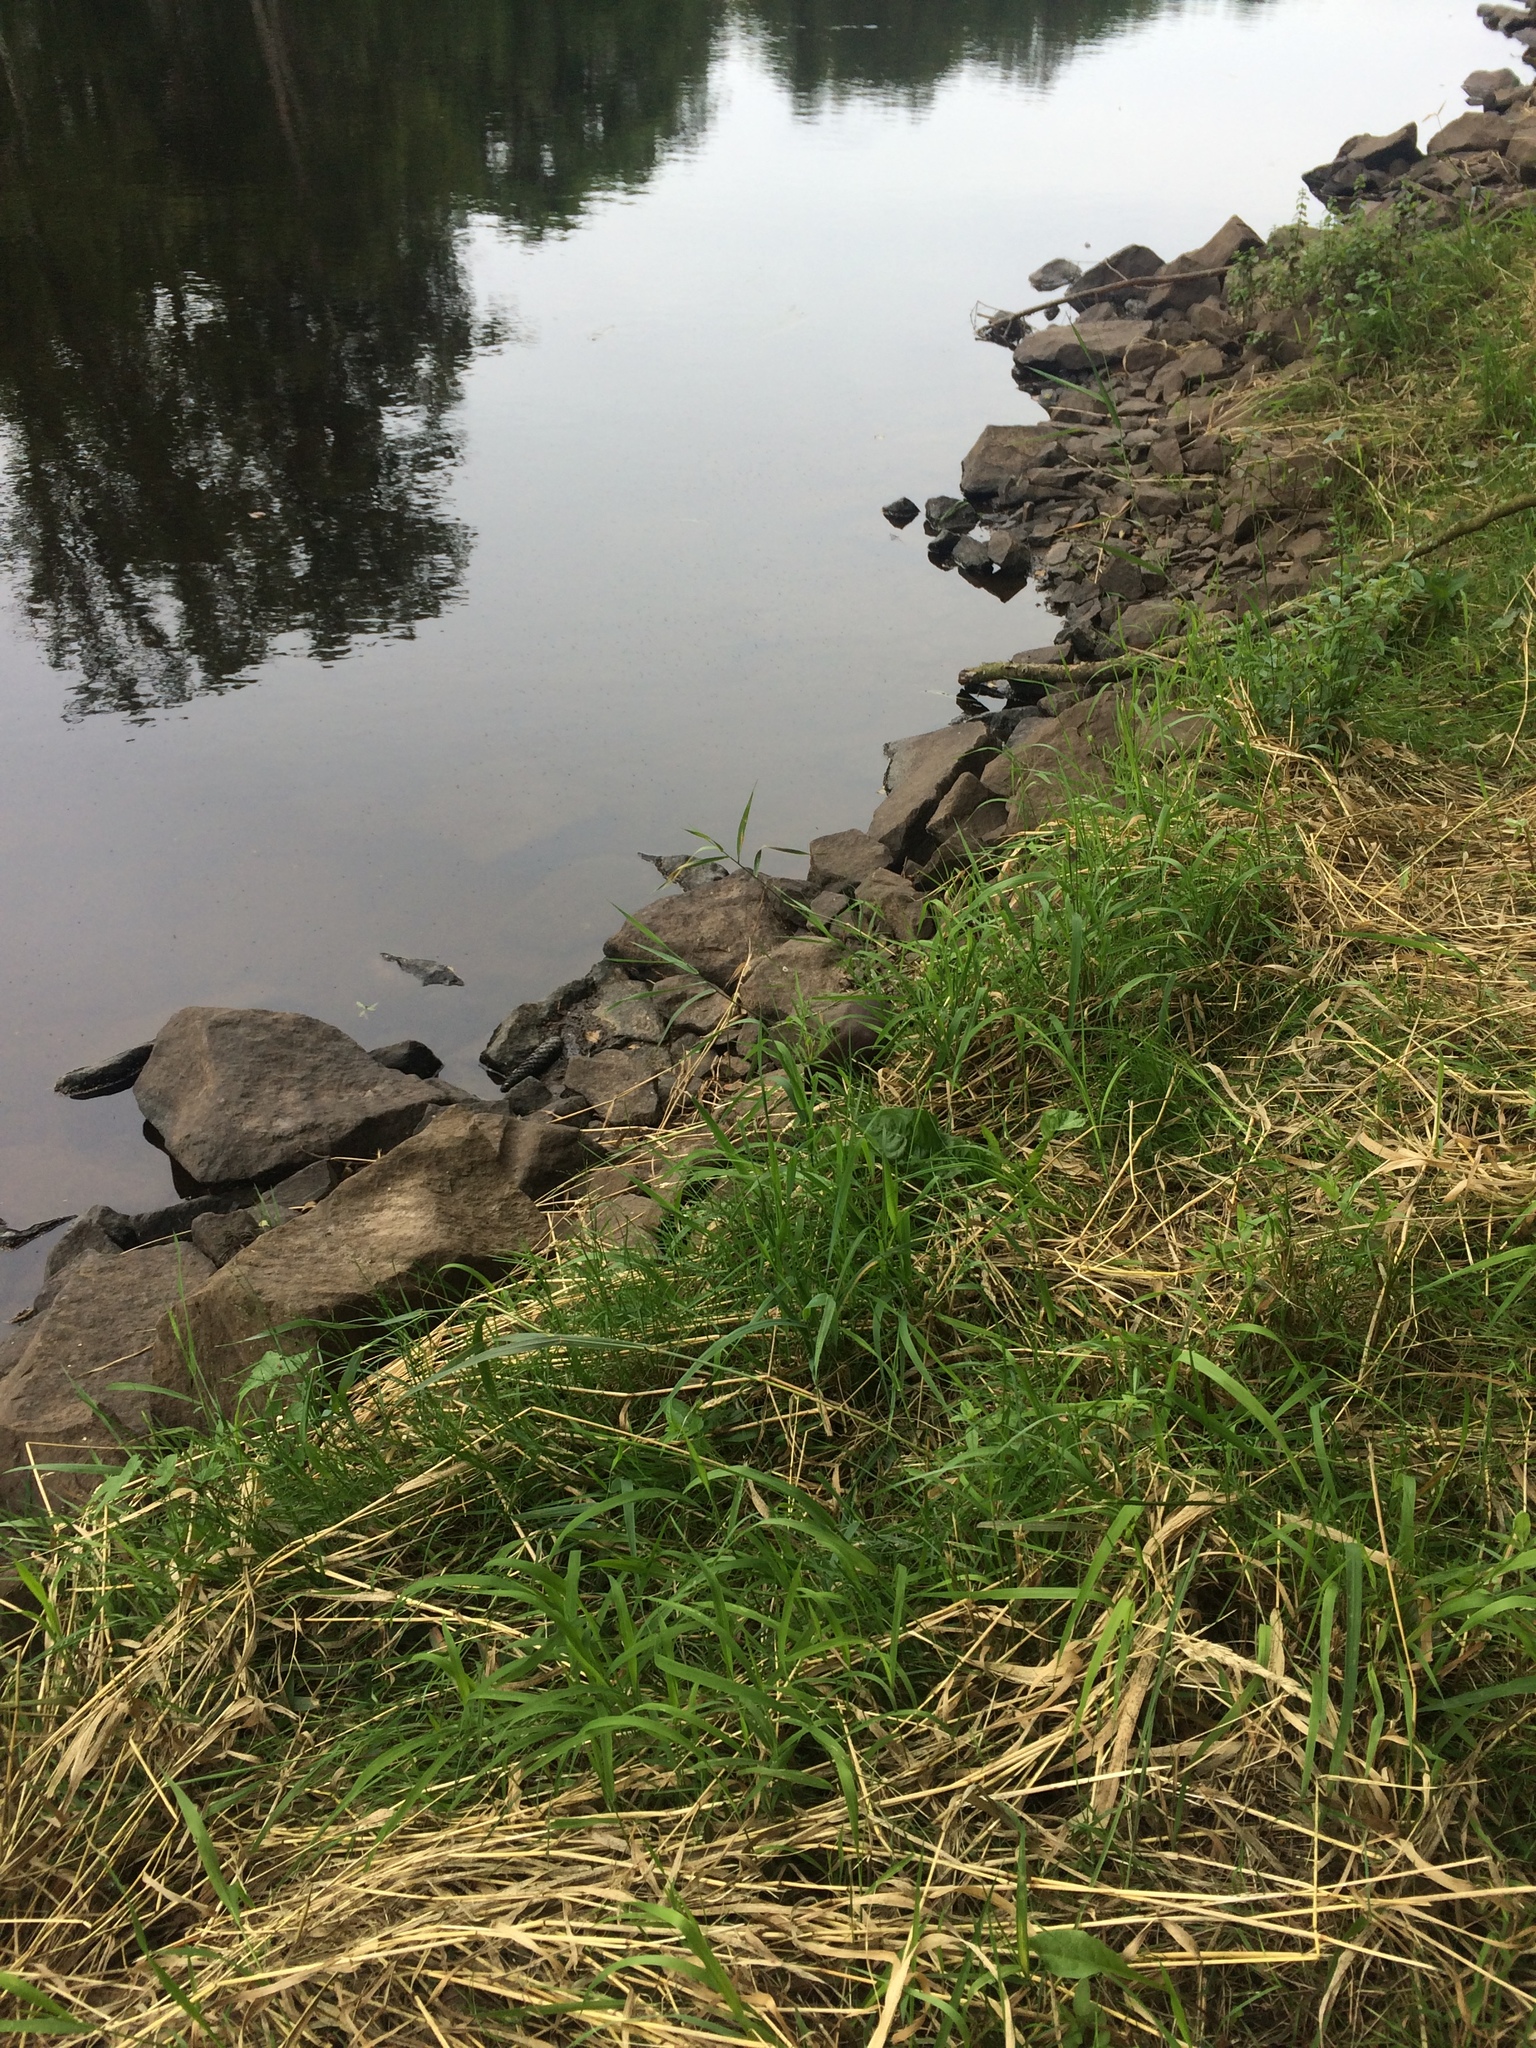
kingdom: Animalia
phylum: Chordata
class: Mammalia
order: Carnivora
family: Mustelidae
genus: Mustela
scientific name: Mustela
